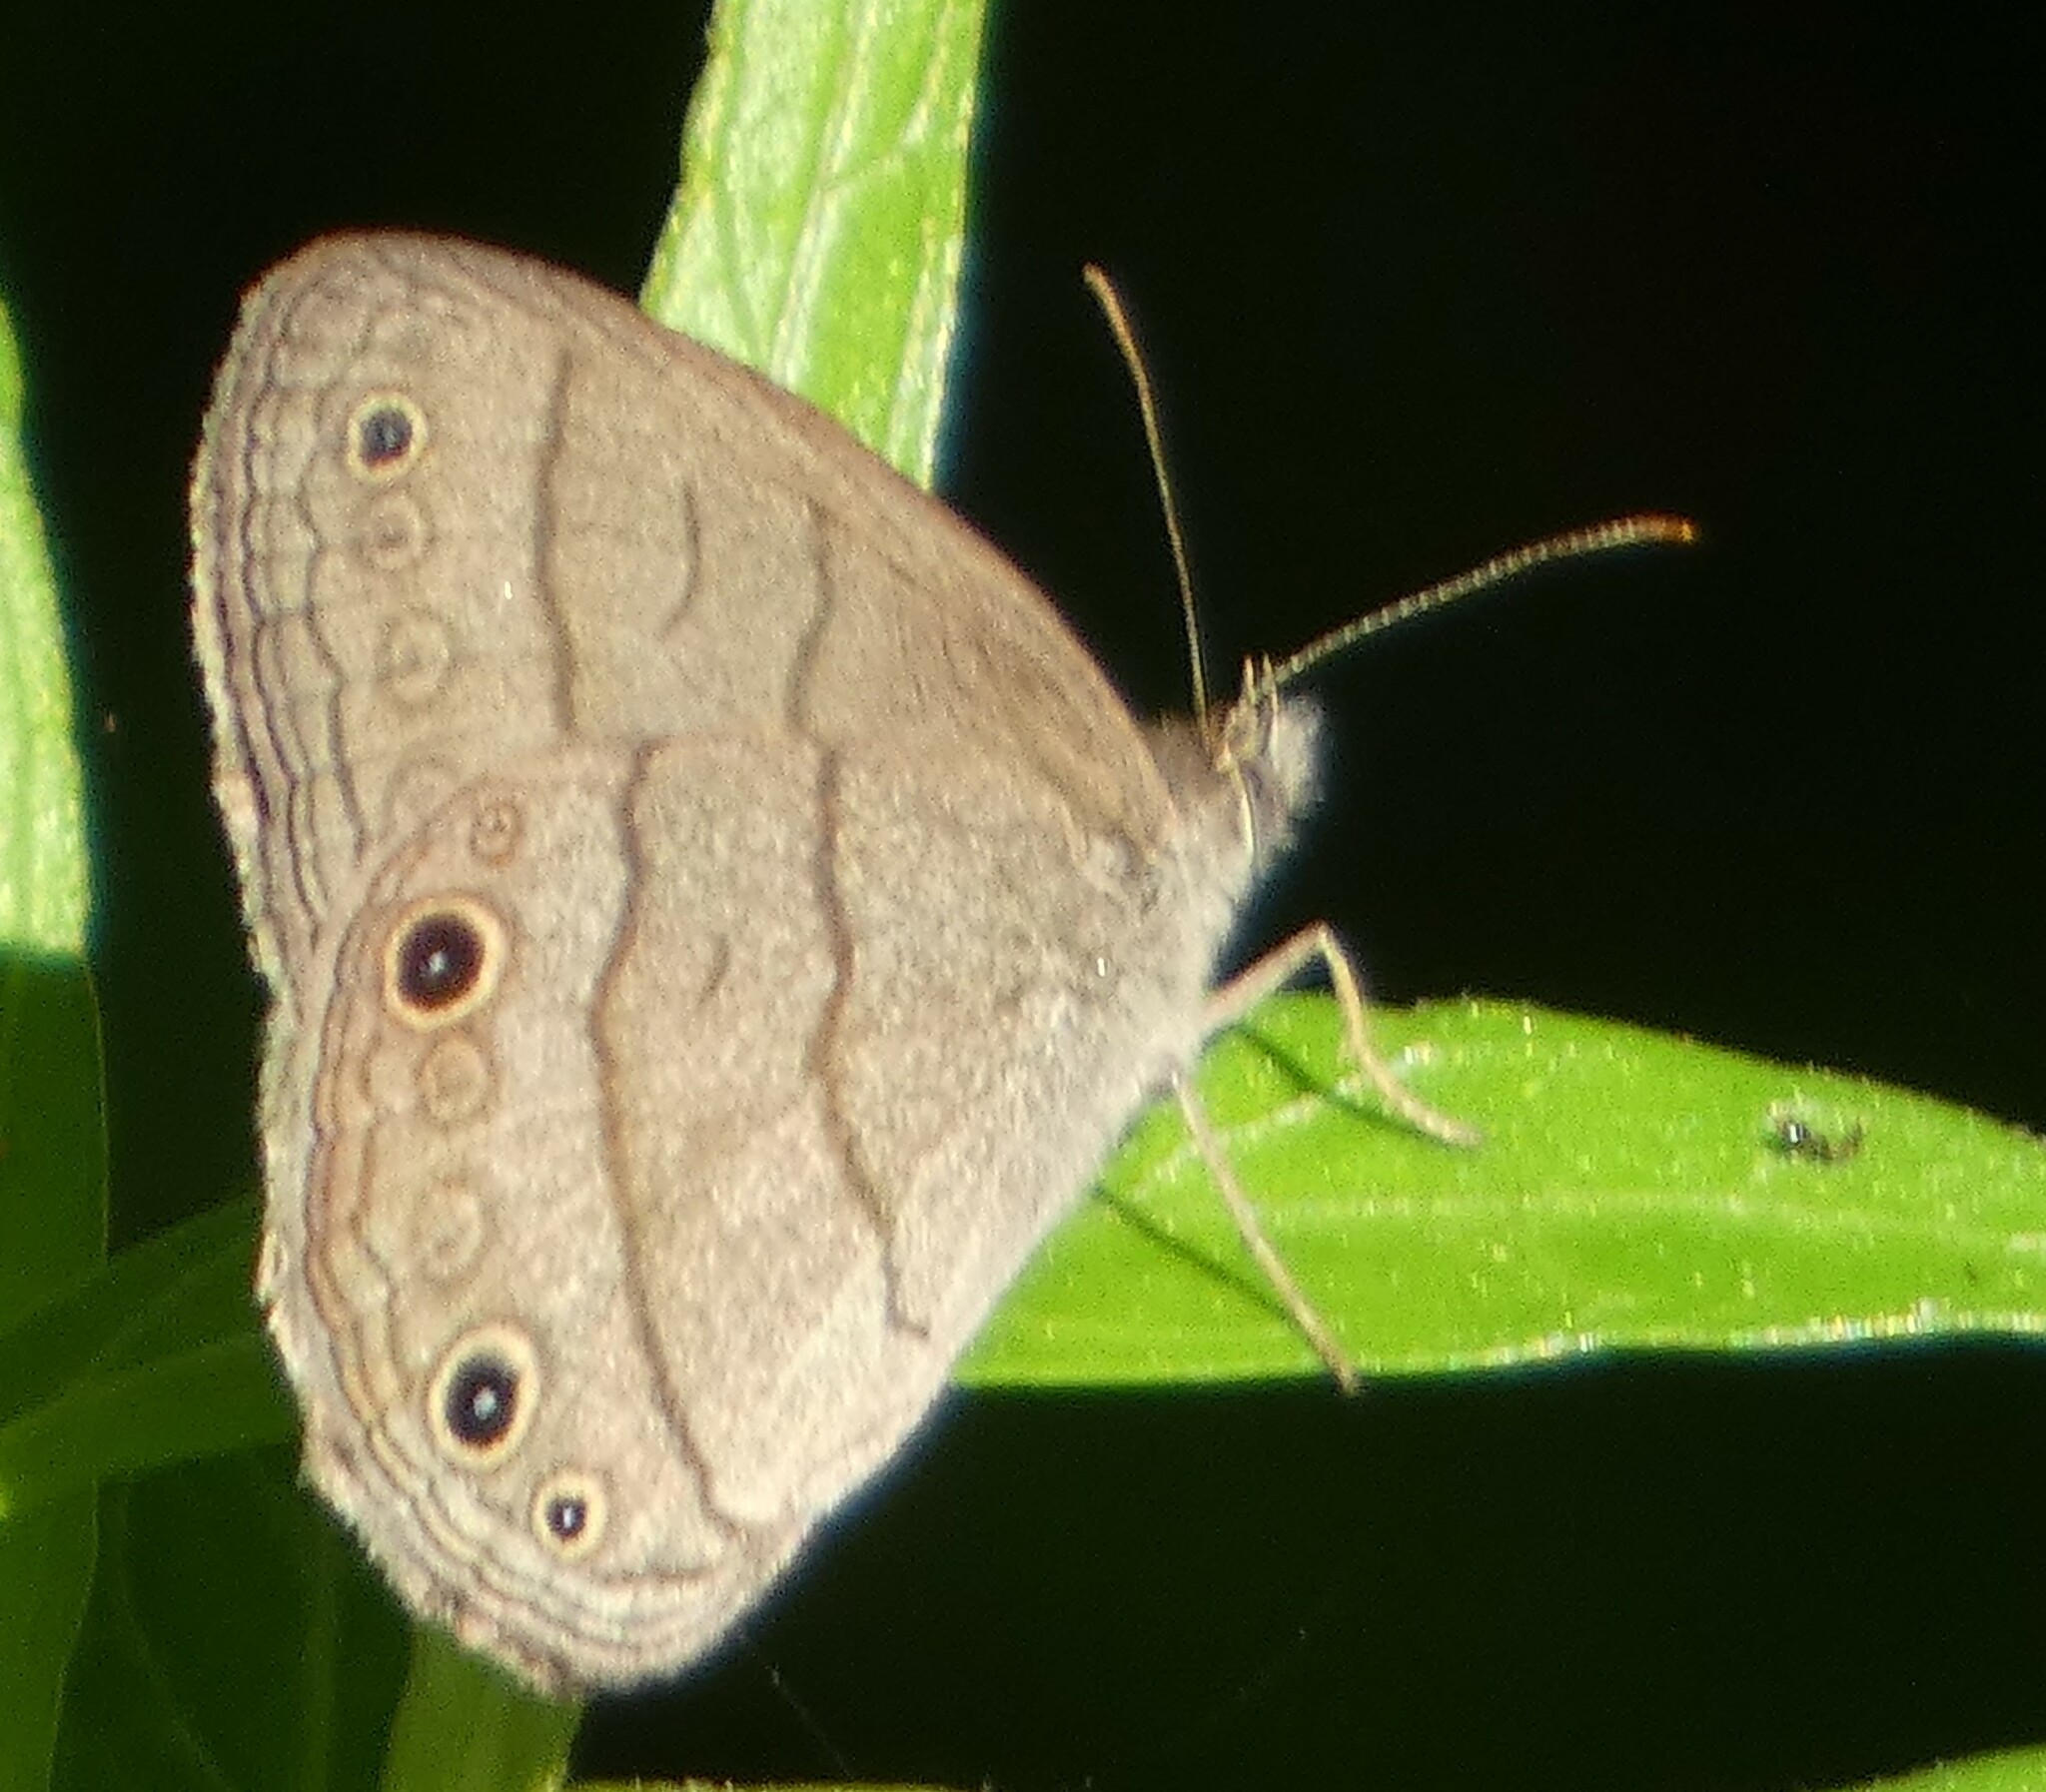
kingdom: Animalia
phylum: Arthropoda
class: Insecta
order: Lepidoptera
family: Nymphalidae
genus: Hermeuptychia
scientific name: Hermeuptychia hermes
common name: Hermes satyr
